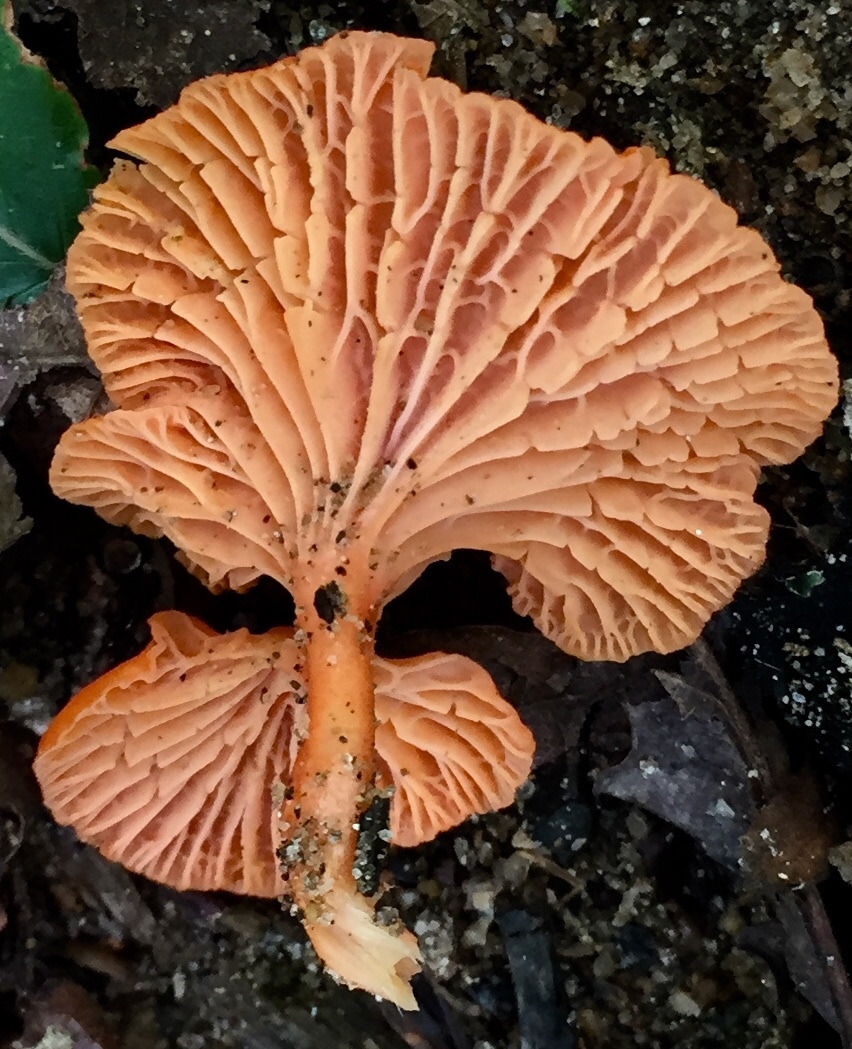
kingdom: Fungi
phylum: Basidiomycota
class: Agaricomycetes
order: Cantharellales
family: Hydnaceae
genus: Cantharellus
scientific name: Cantharellus cinnabarinus
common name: Cinnabar chanterelle
